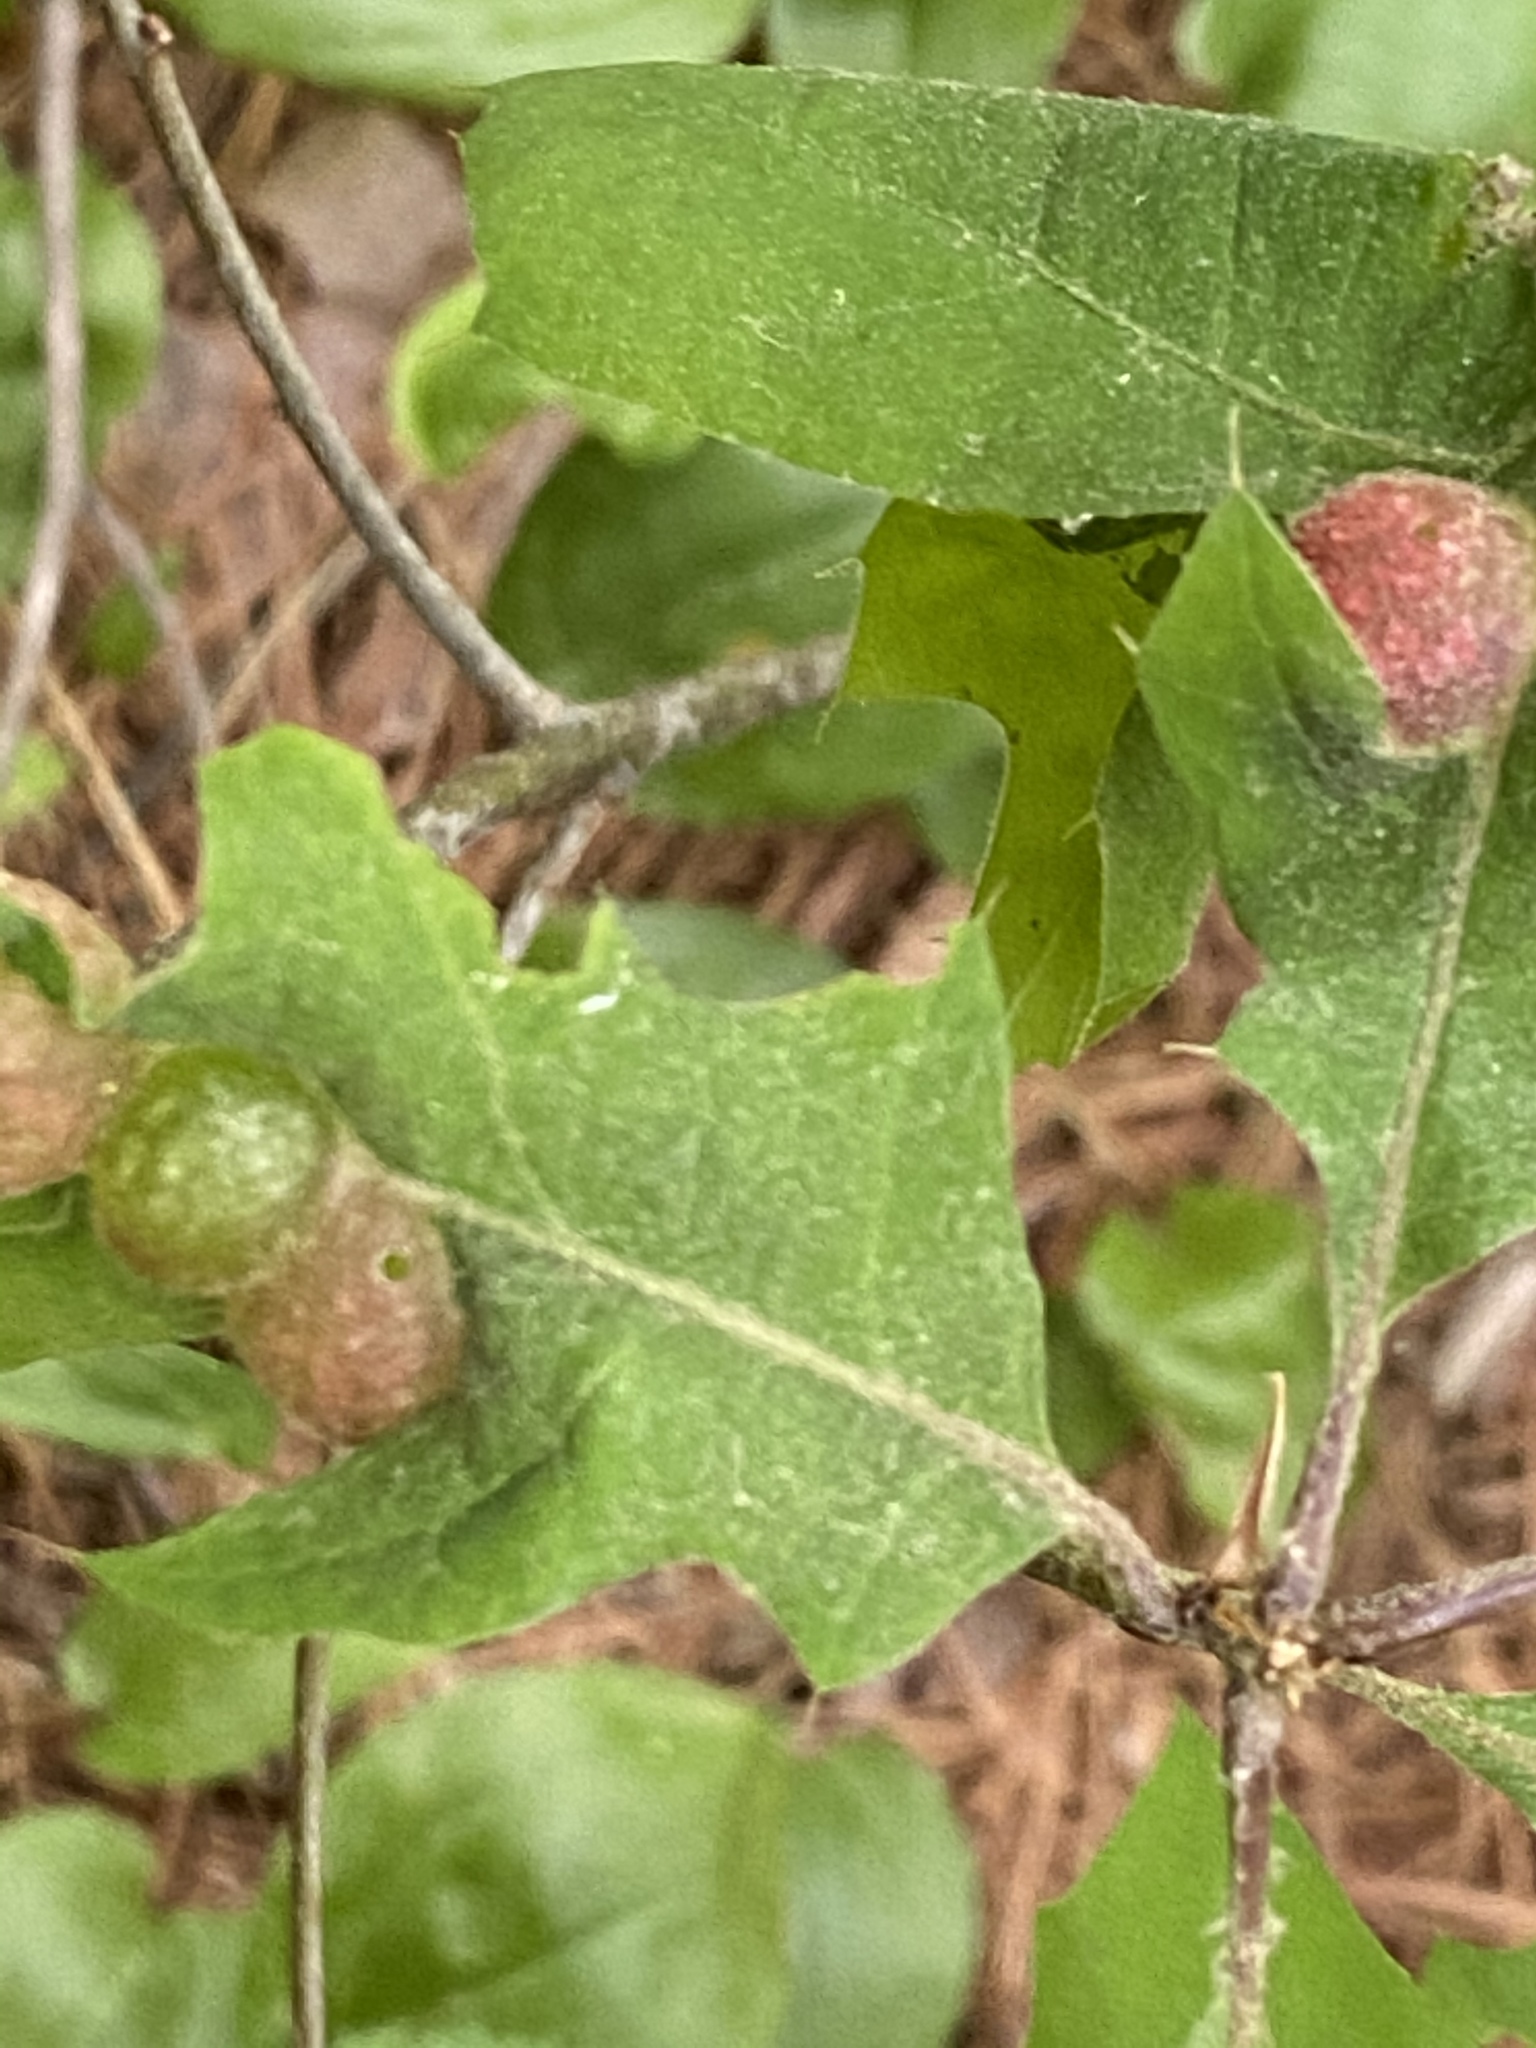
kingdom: Animalia
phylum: Arthropoda
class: Insecta
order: Hymenoptera
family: Cynipidae
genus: Dryocosmus
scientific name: Dryocosmus quercuspalustris
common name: Succulent oak gall wasp
